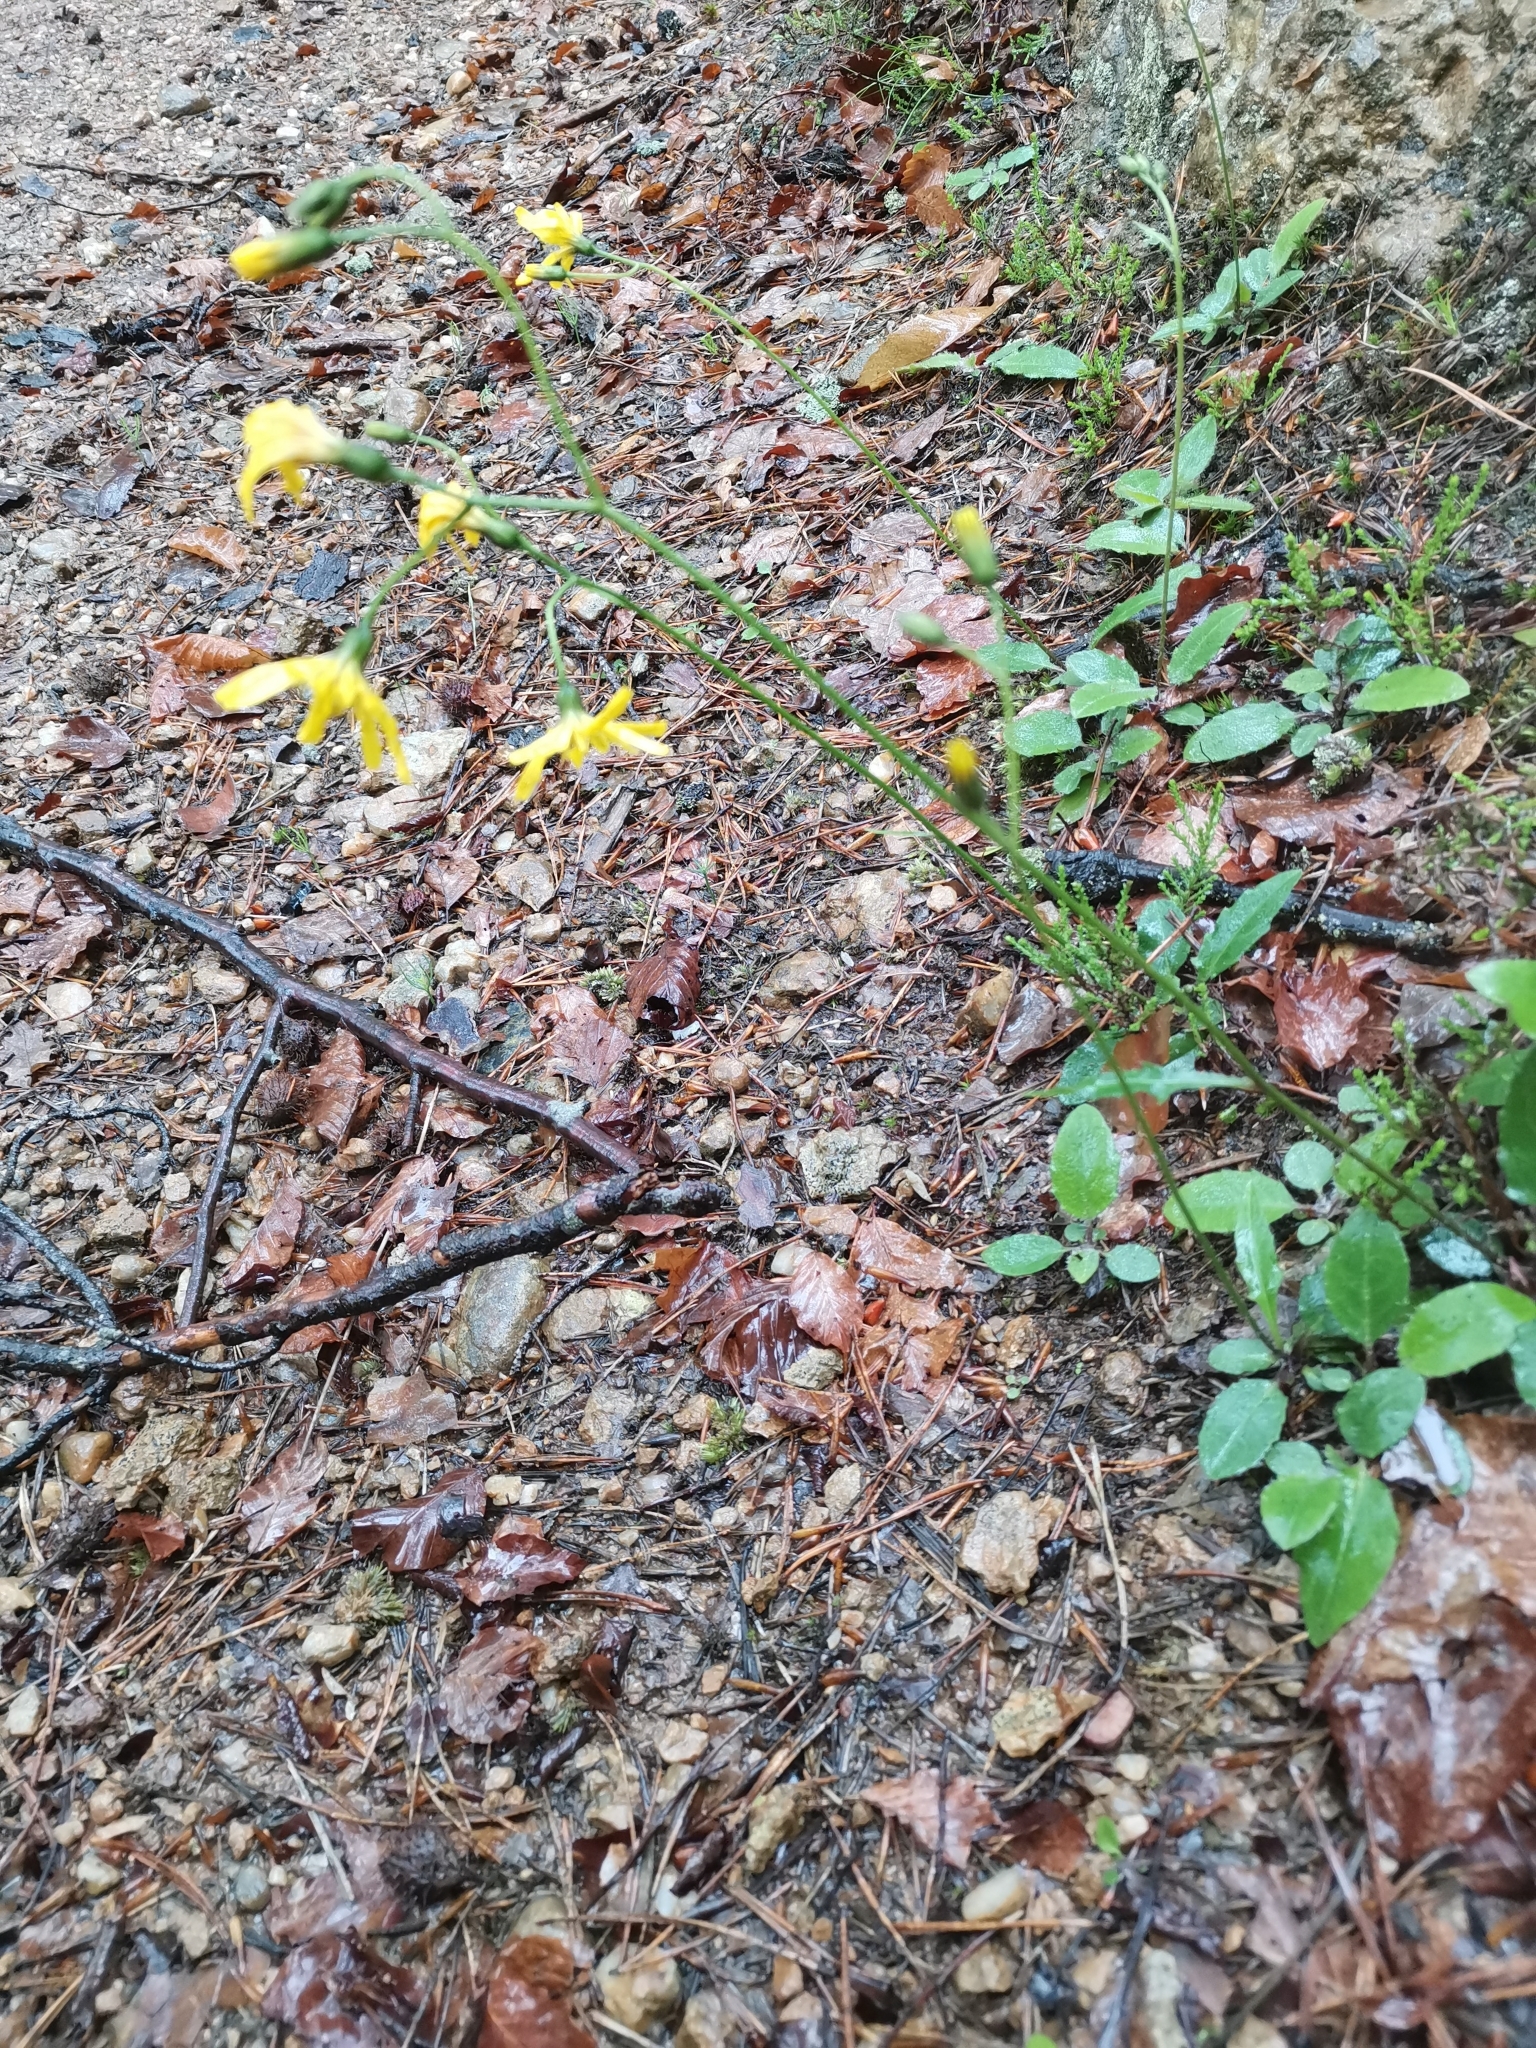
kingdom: Plantae
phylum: Tracheophyta
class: Magnoliopsida
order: Asterales
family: Asteraceae
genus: Hieracium
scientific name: Hieracium murorum
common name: Wall hawkweed
